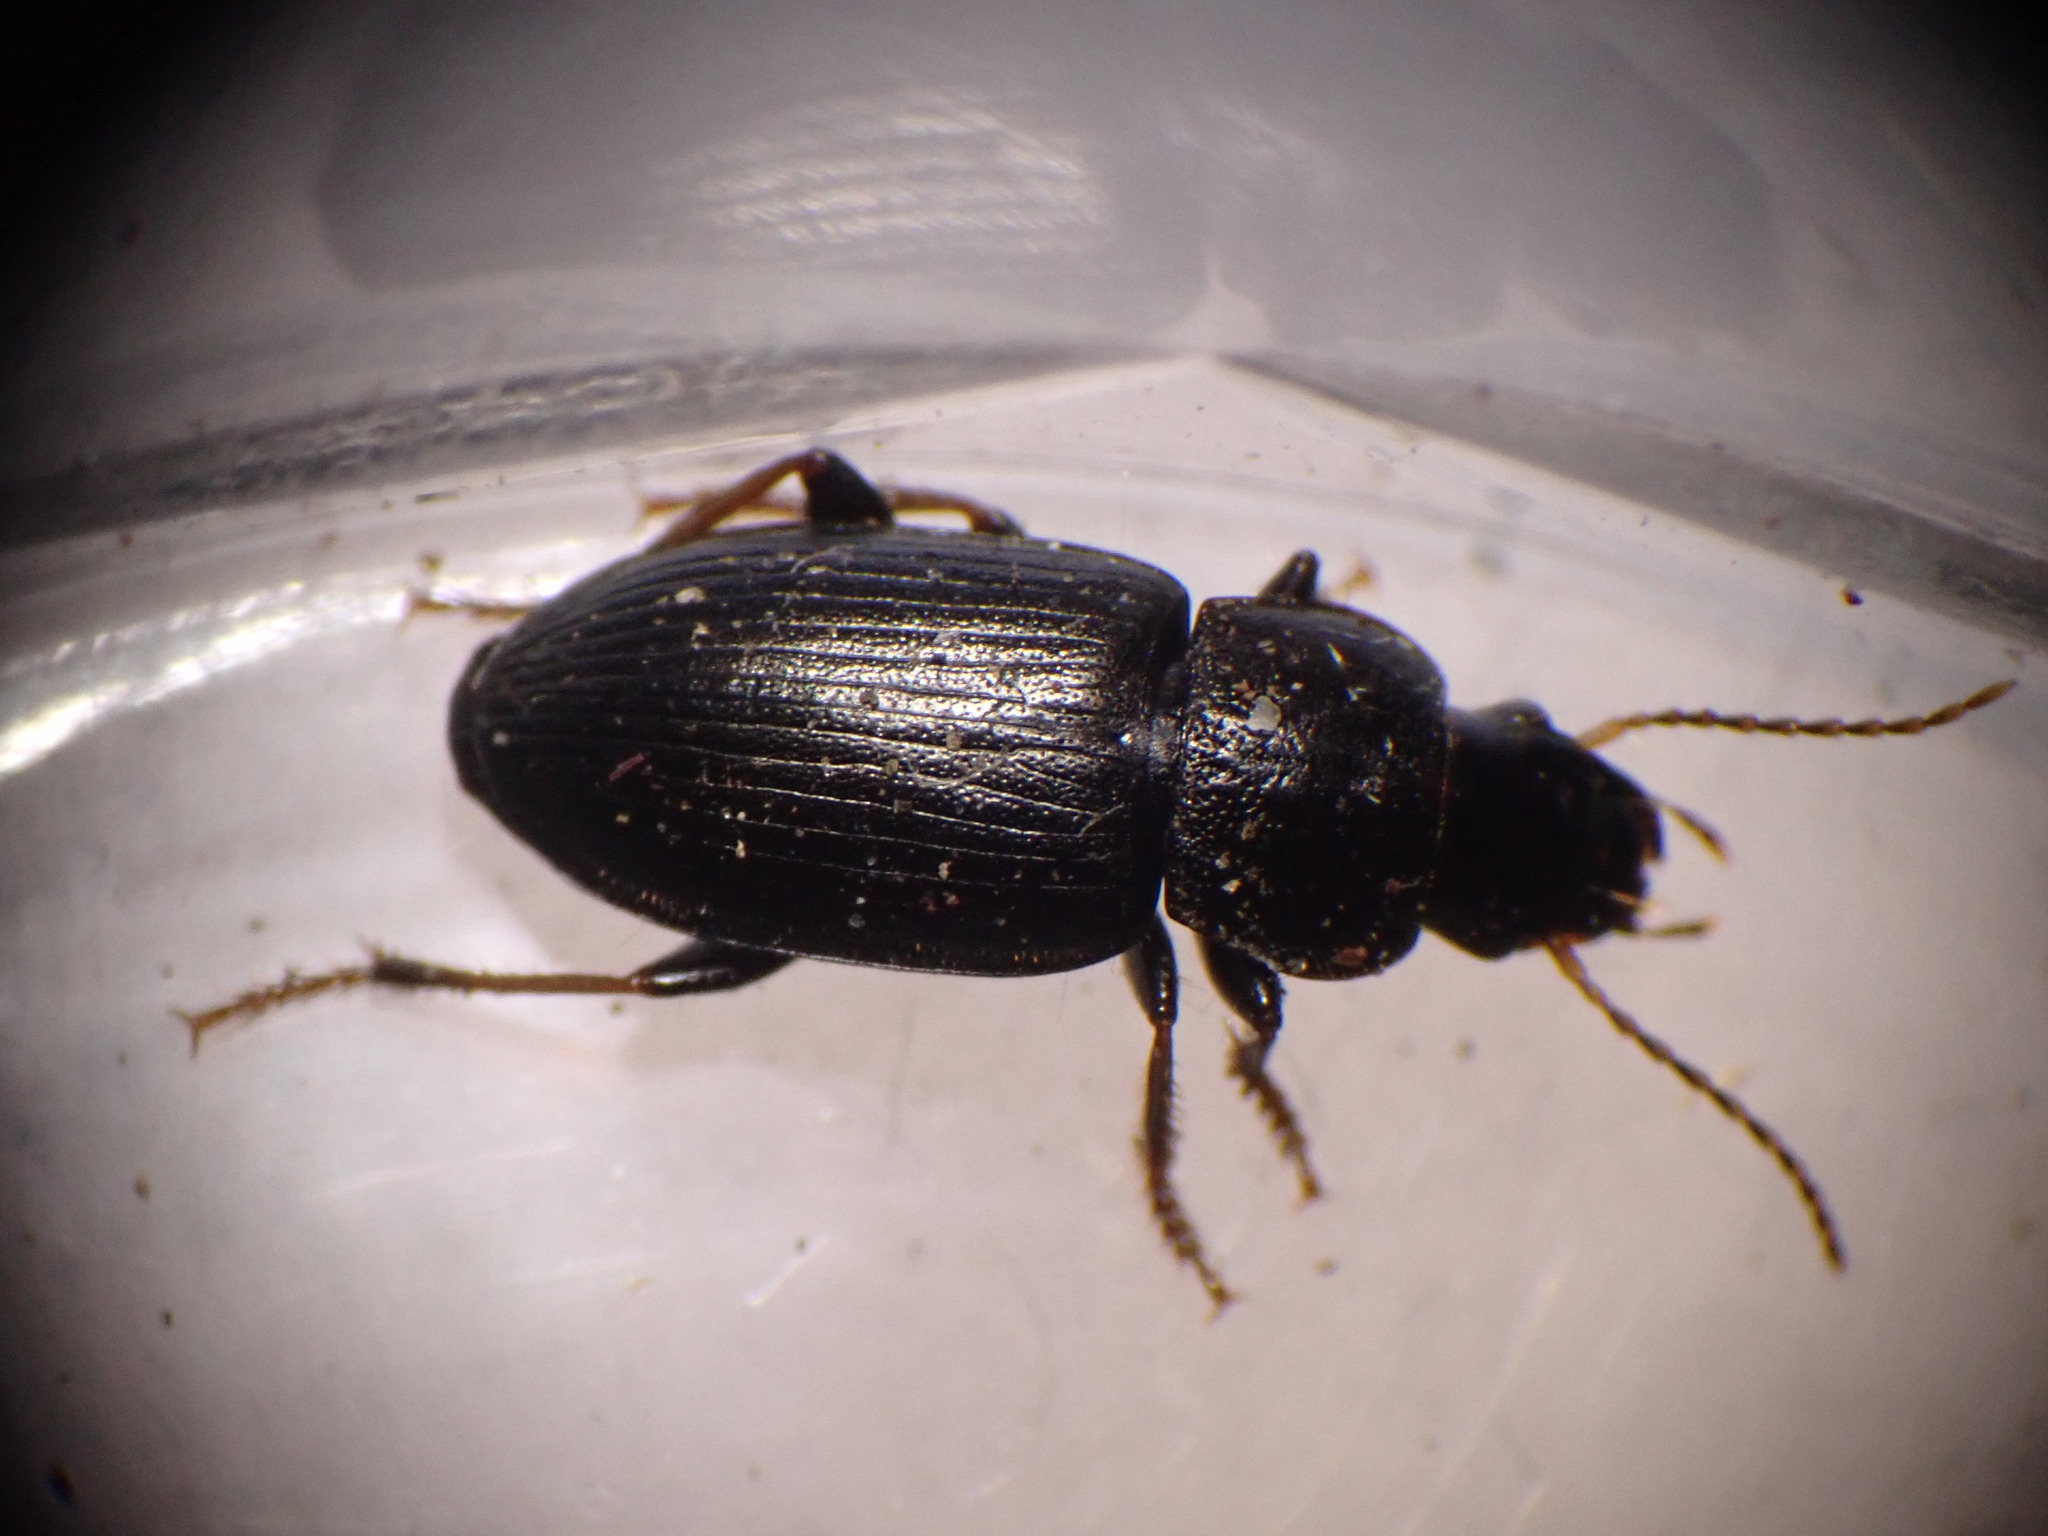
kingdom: Animalia
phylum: Arthropoda
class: Insecta
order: Coleoptera
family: Carabidae
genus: Harpalus
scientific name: Harpalus signaticornis
